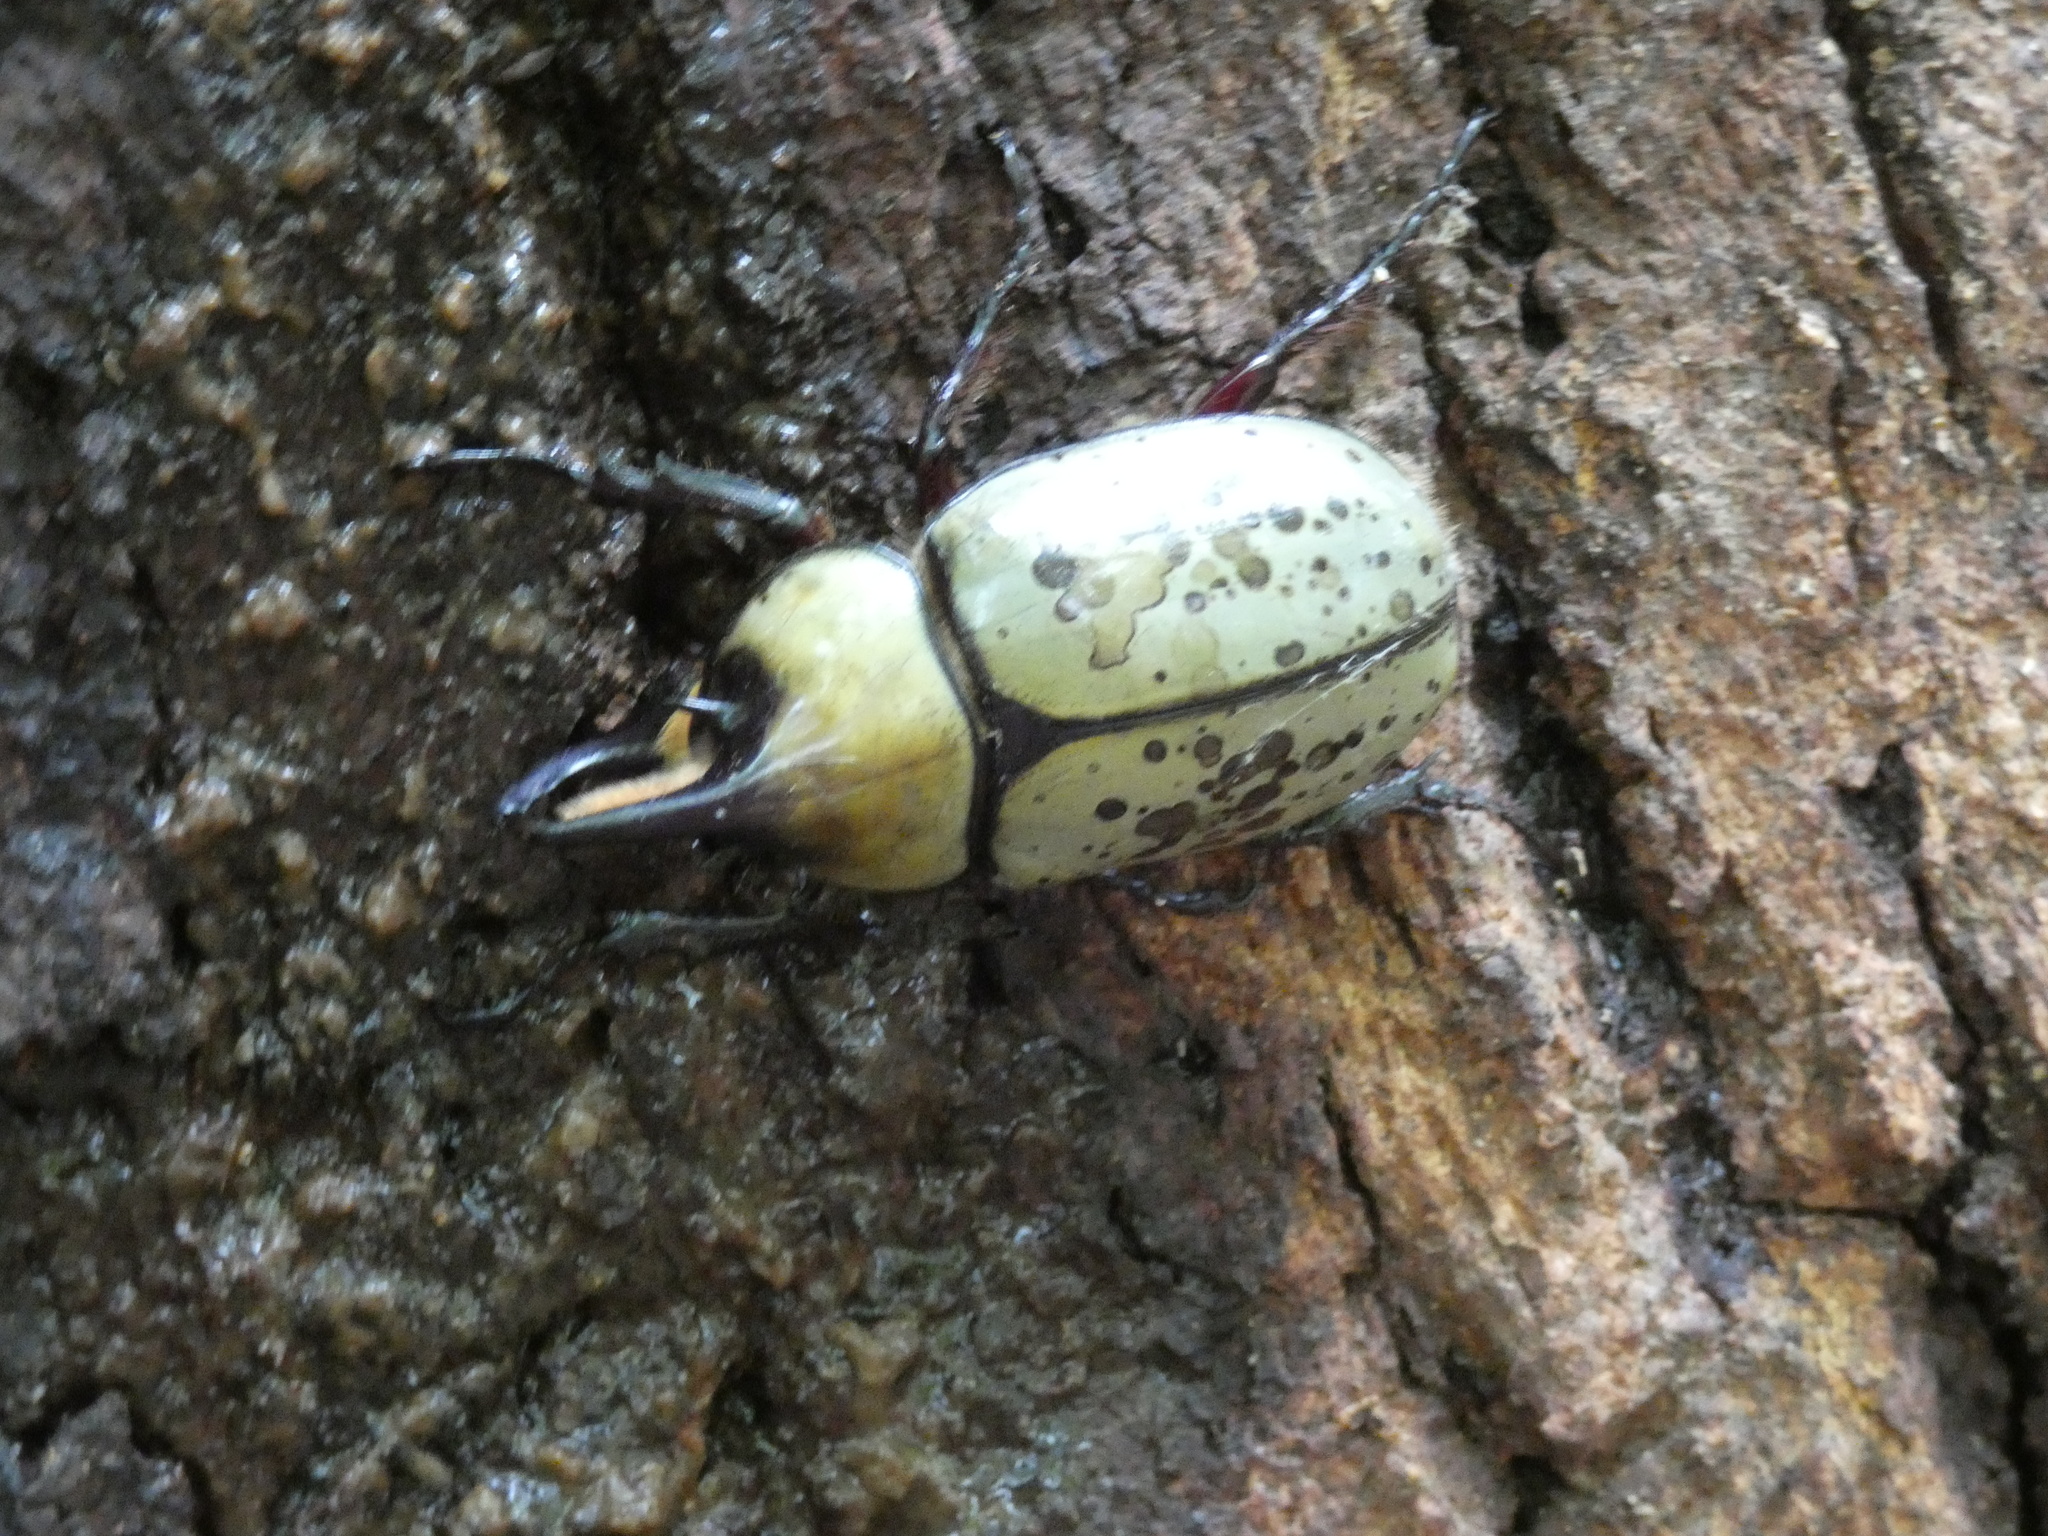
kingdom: Animalia
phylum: Arthropoda
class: Insecta
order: Coleoptera
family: Scarabaeidae
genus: Dynastes
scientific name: Dynastes tityus
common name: Eastern hercules beetle
